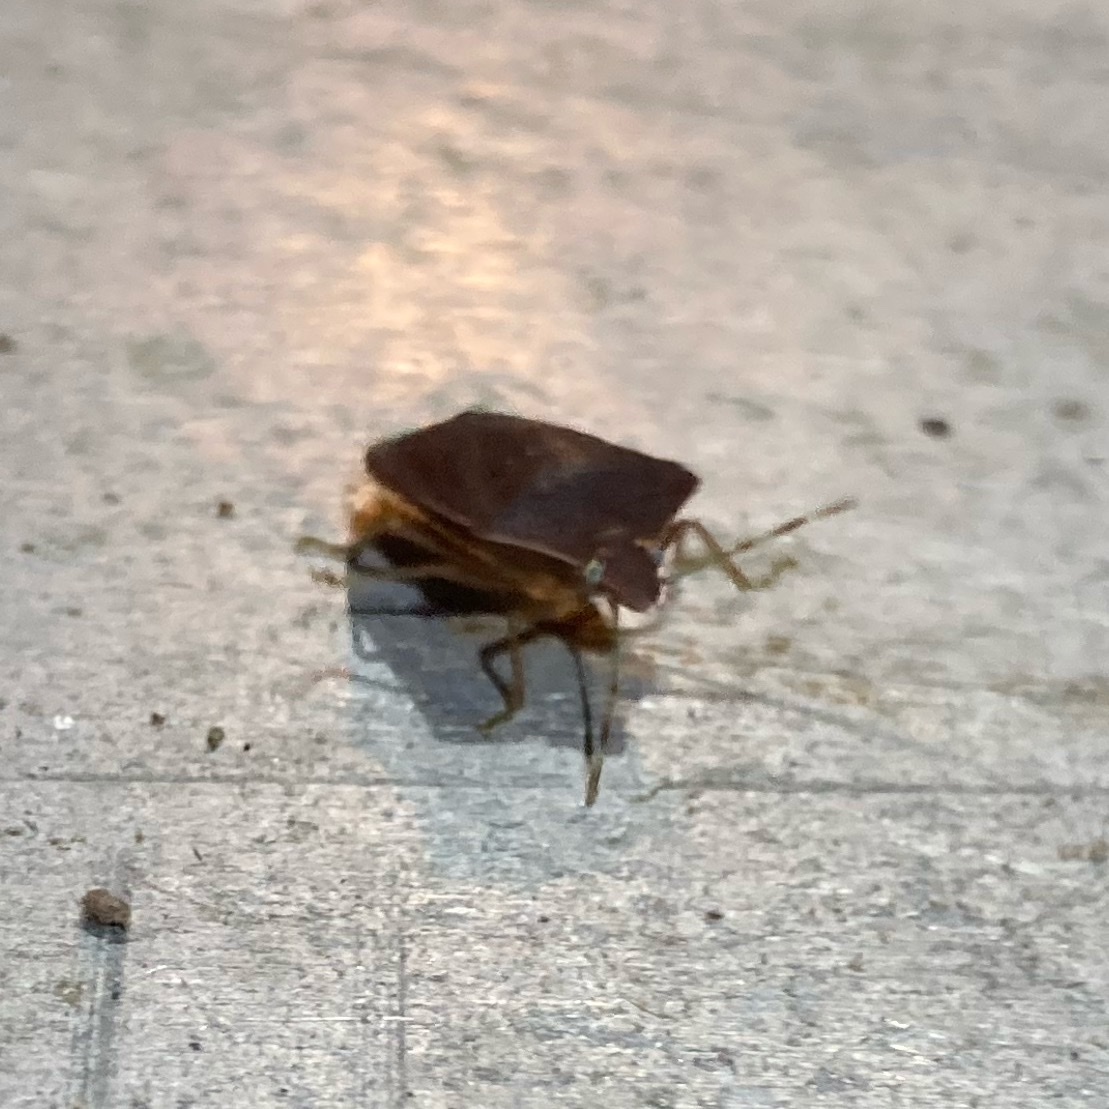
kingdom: Animalia
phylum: Arthropoda
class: Insecta
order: Hemiptera
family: Pentatomidae
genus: Nezara
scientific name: Nezara viridula
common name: Southern green stink bug
